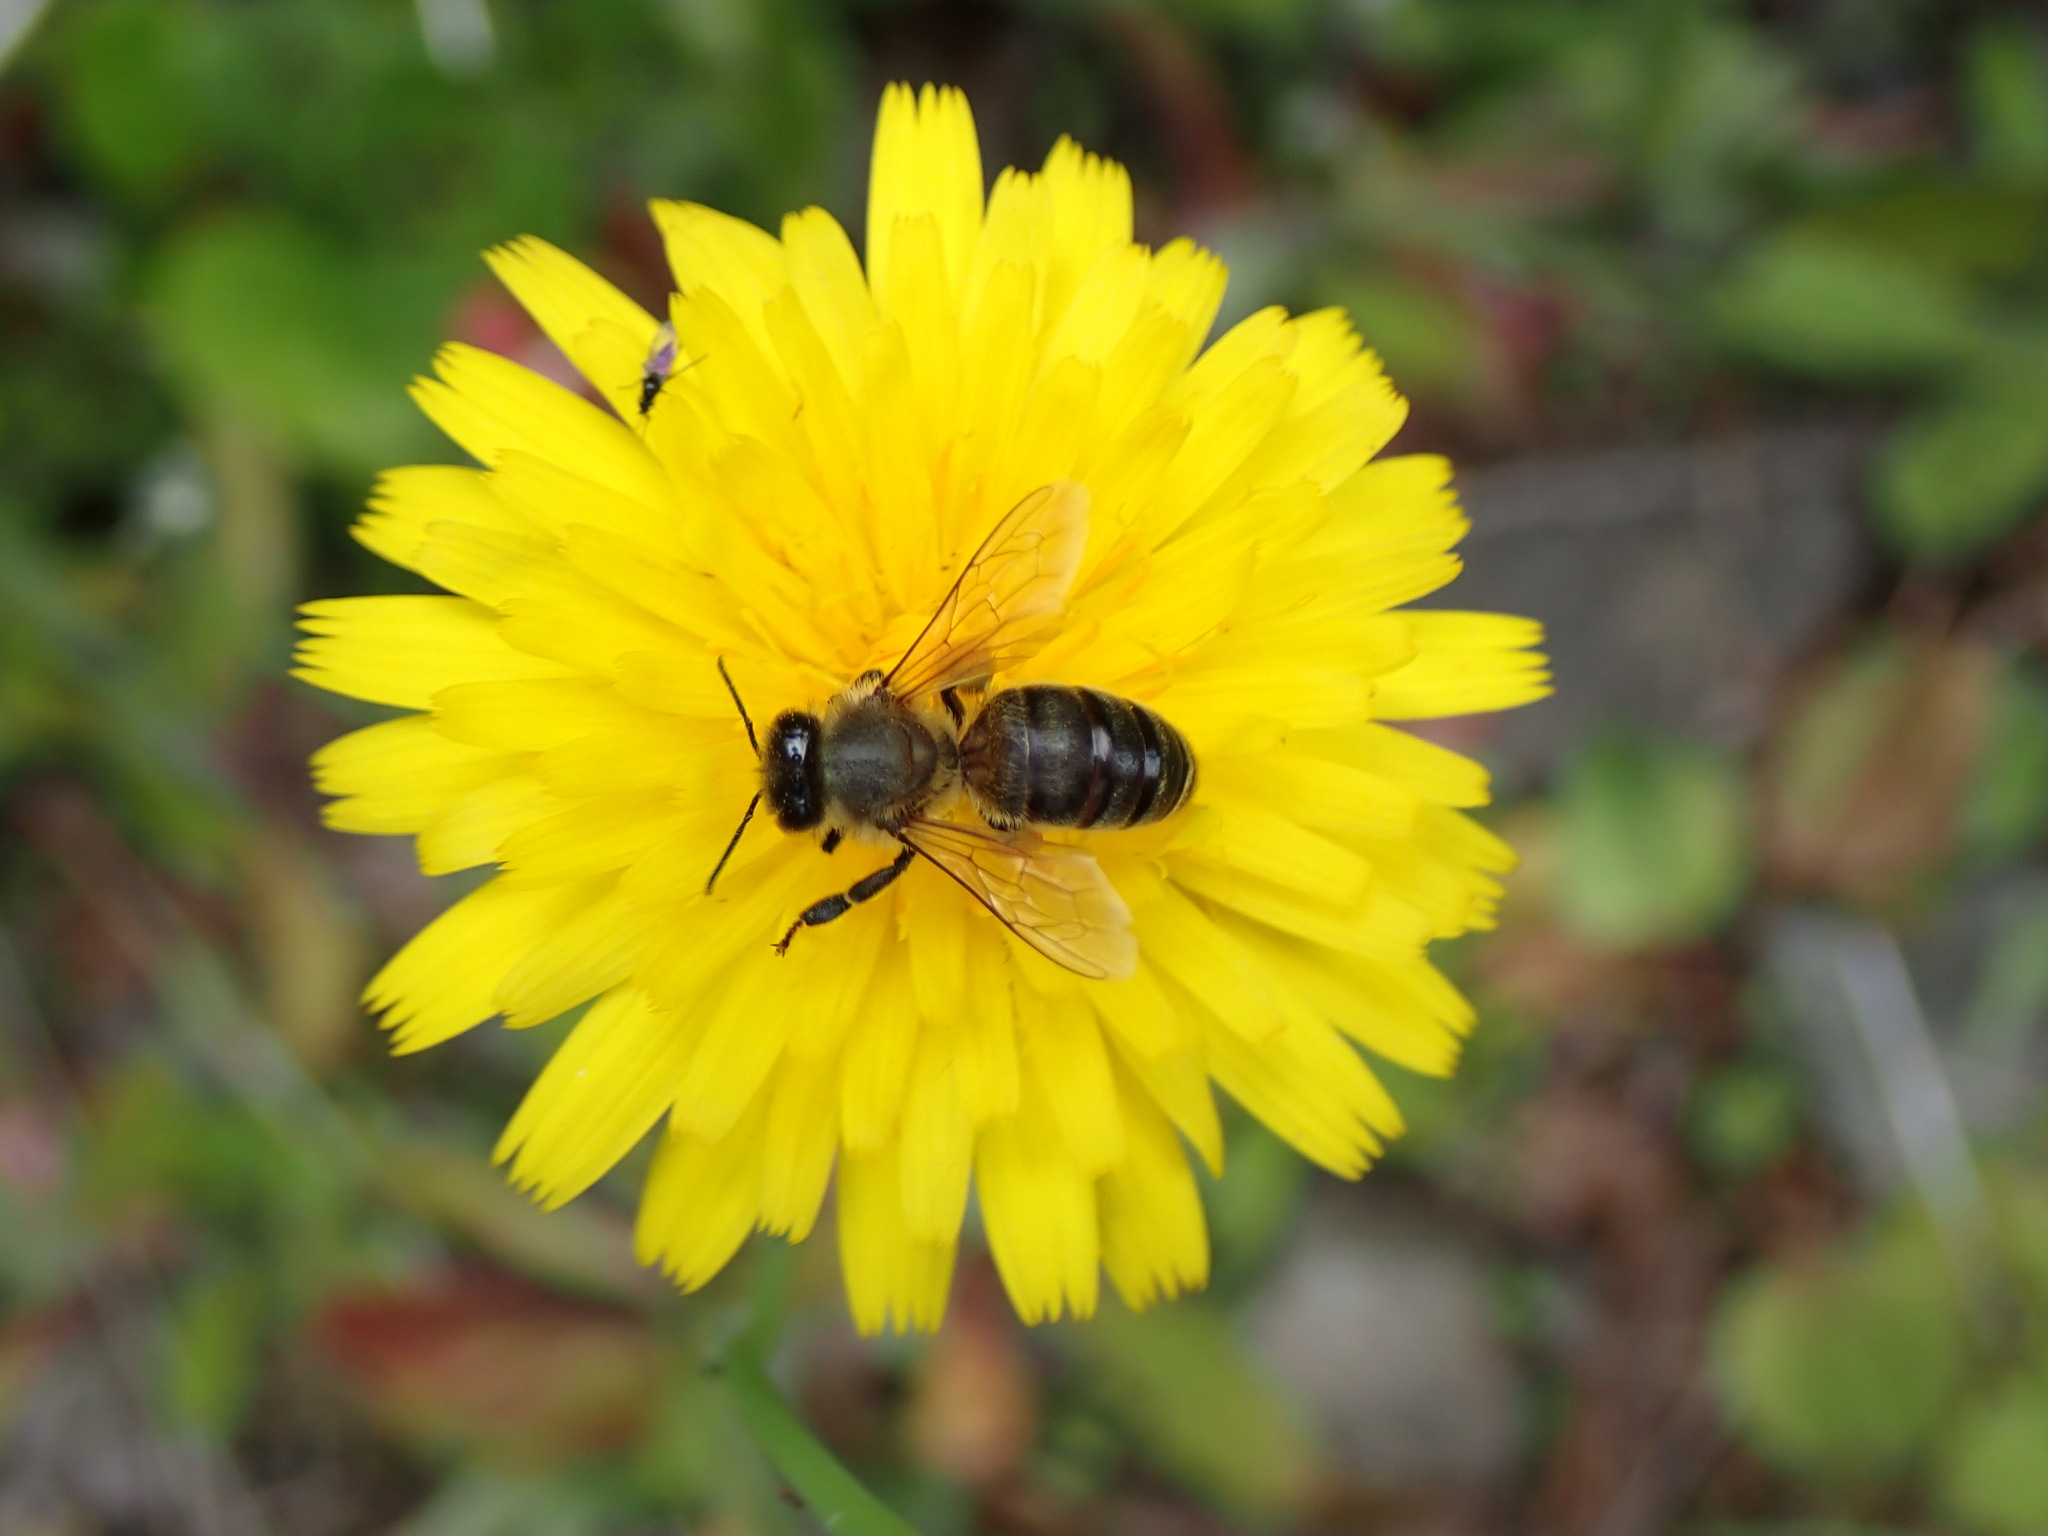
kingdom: Animalia
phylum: Arthropoda
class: Insecta
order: Hymenoptera
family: Apidae
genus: Apis
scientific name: Apis mellifera
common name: Honey bee
